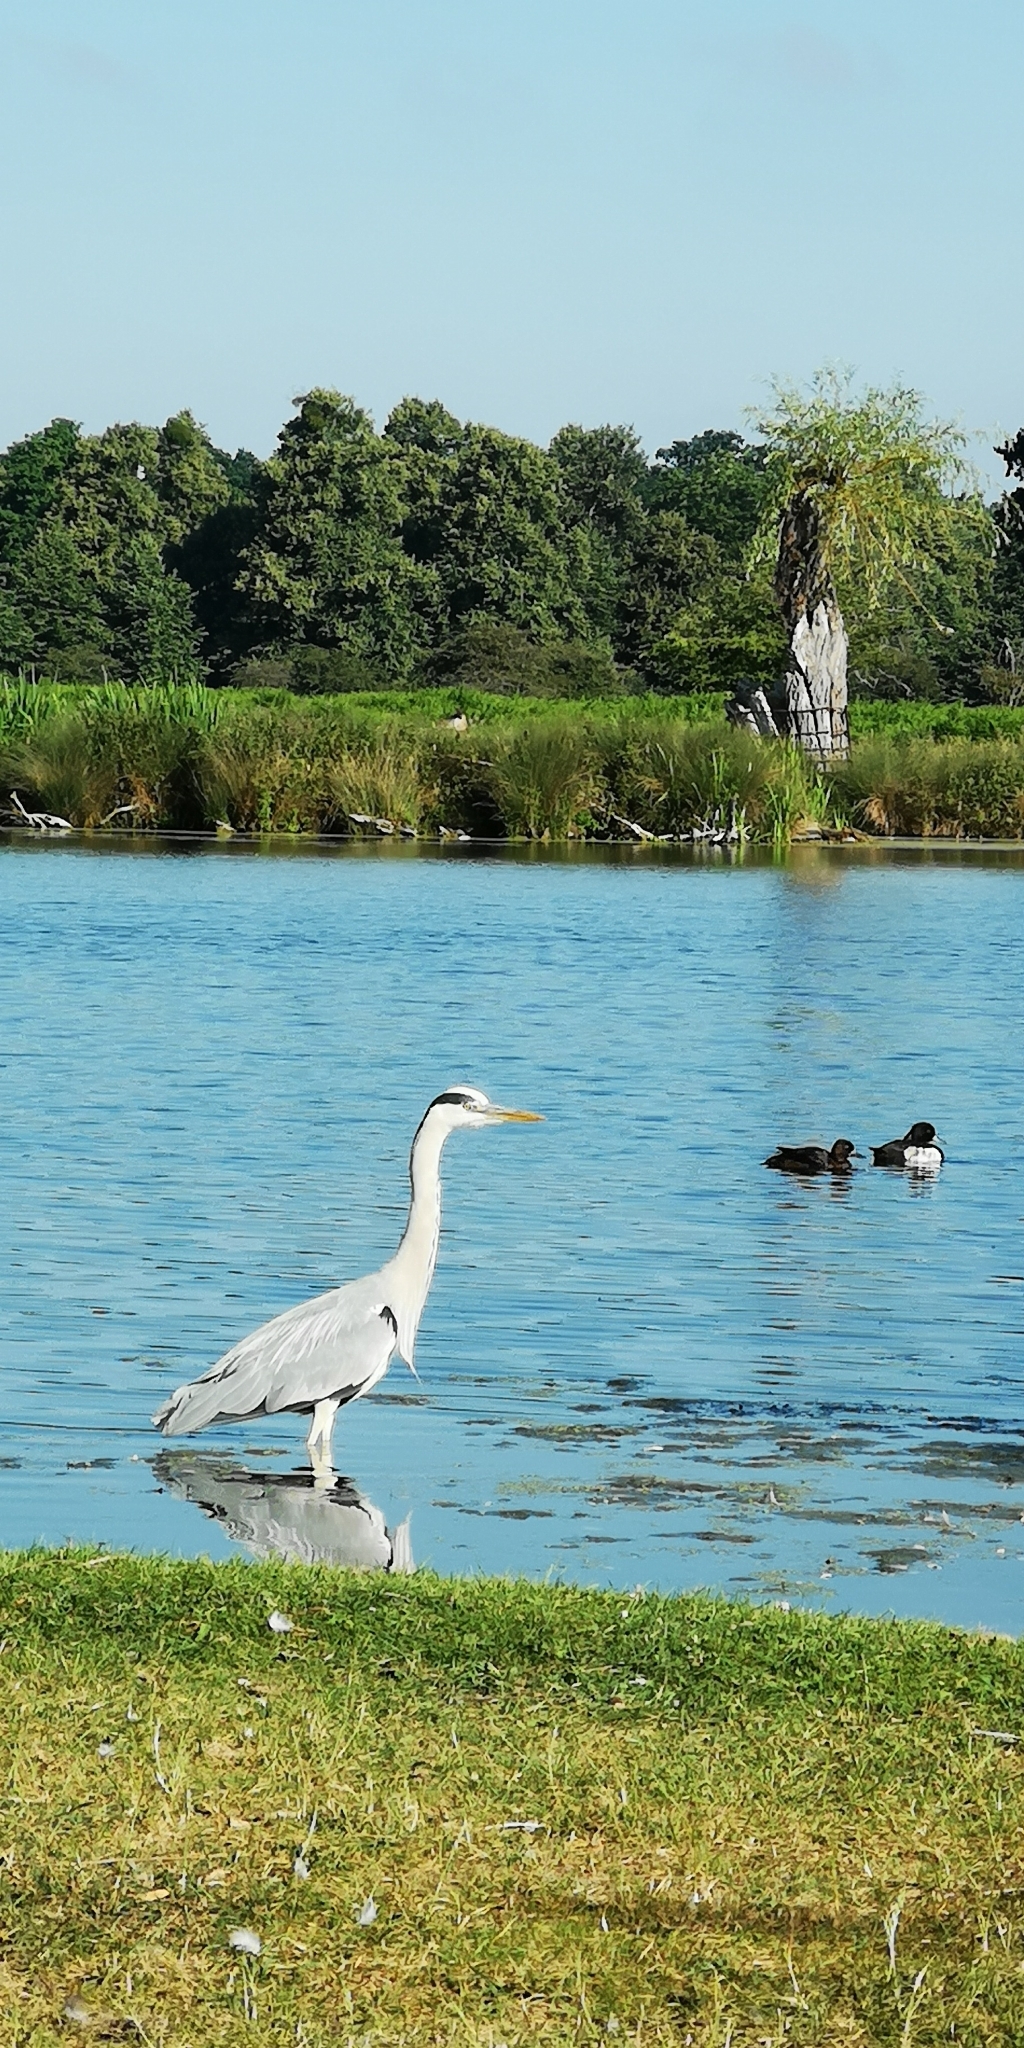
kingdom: Animalia
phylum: Chordata
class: Aves
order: Pelecaniformes
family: Ardeidae
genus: Ardea
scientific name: Ardea cinerea
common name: Grey heron
